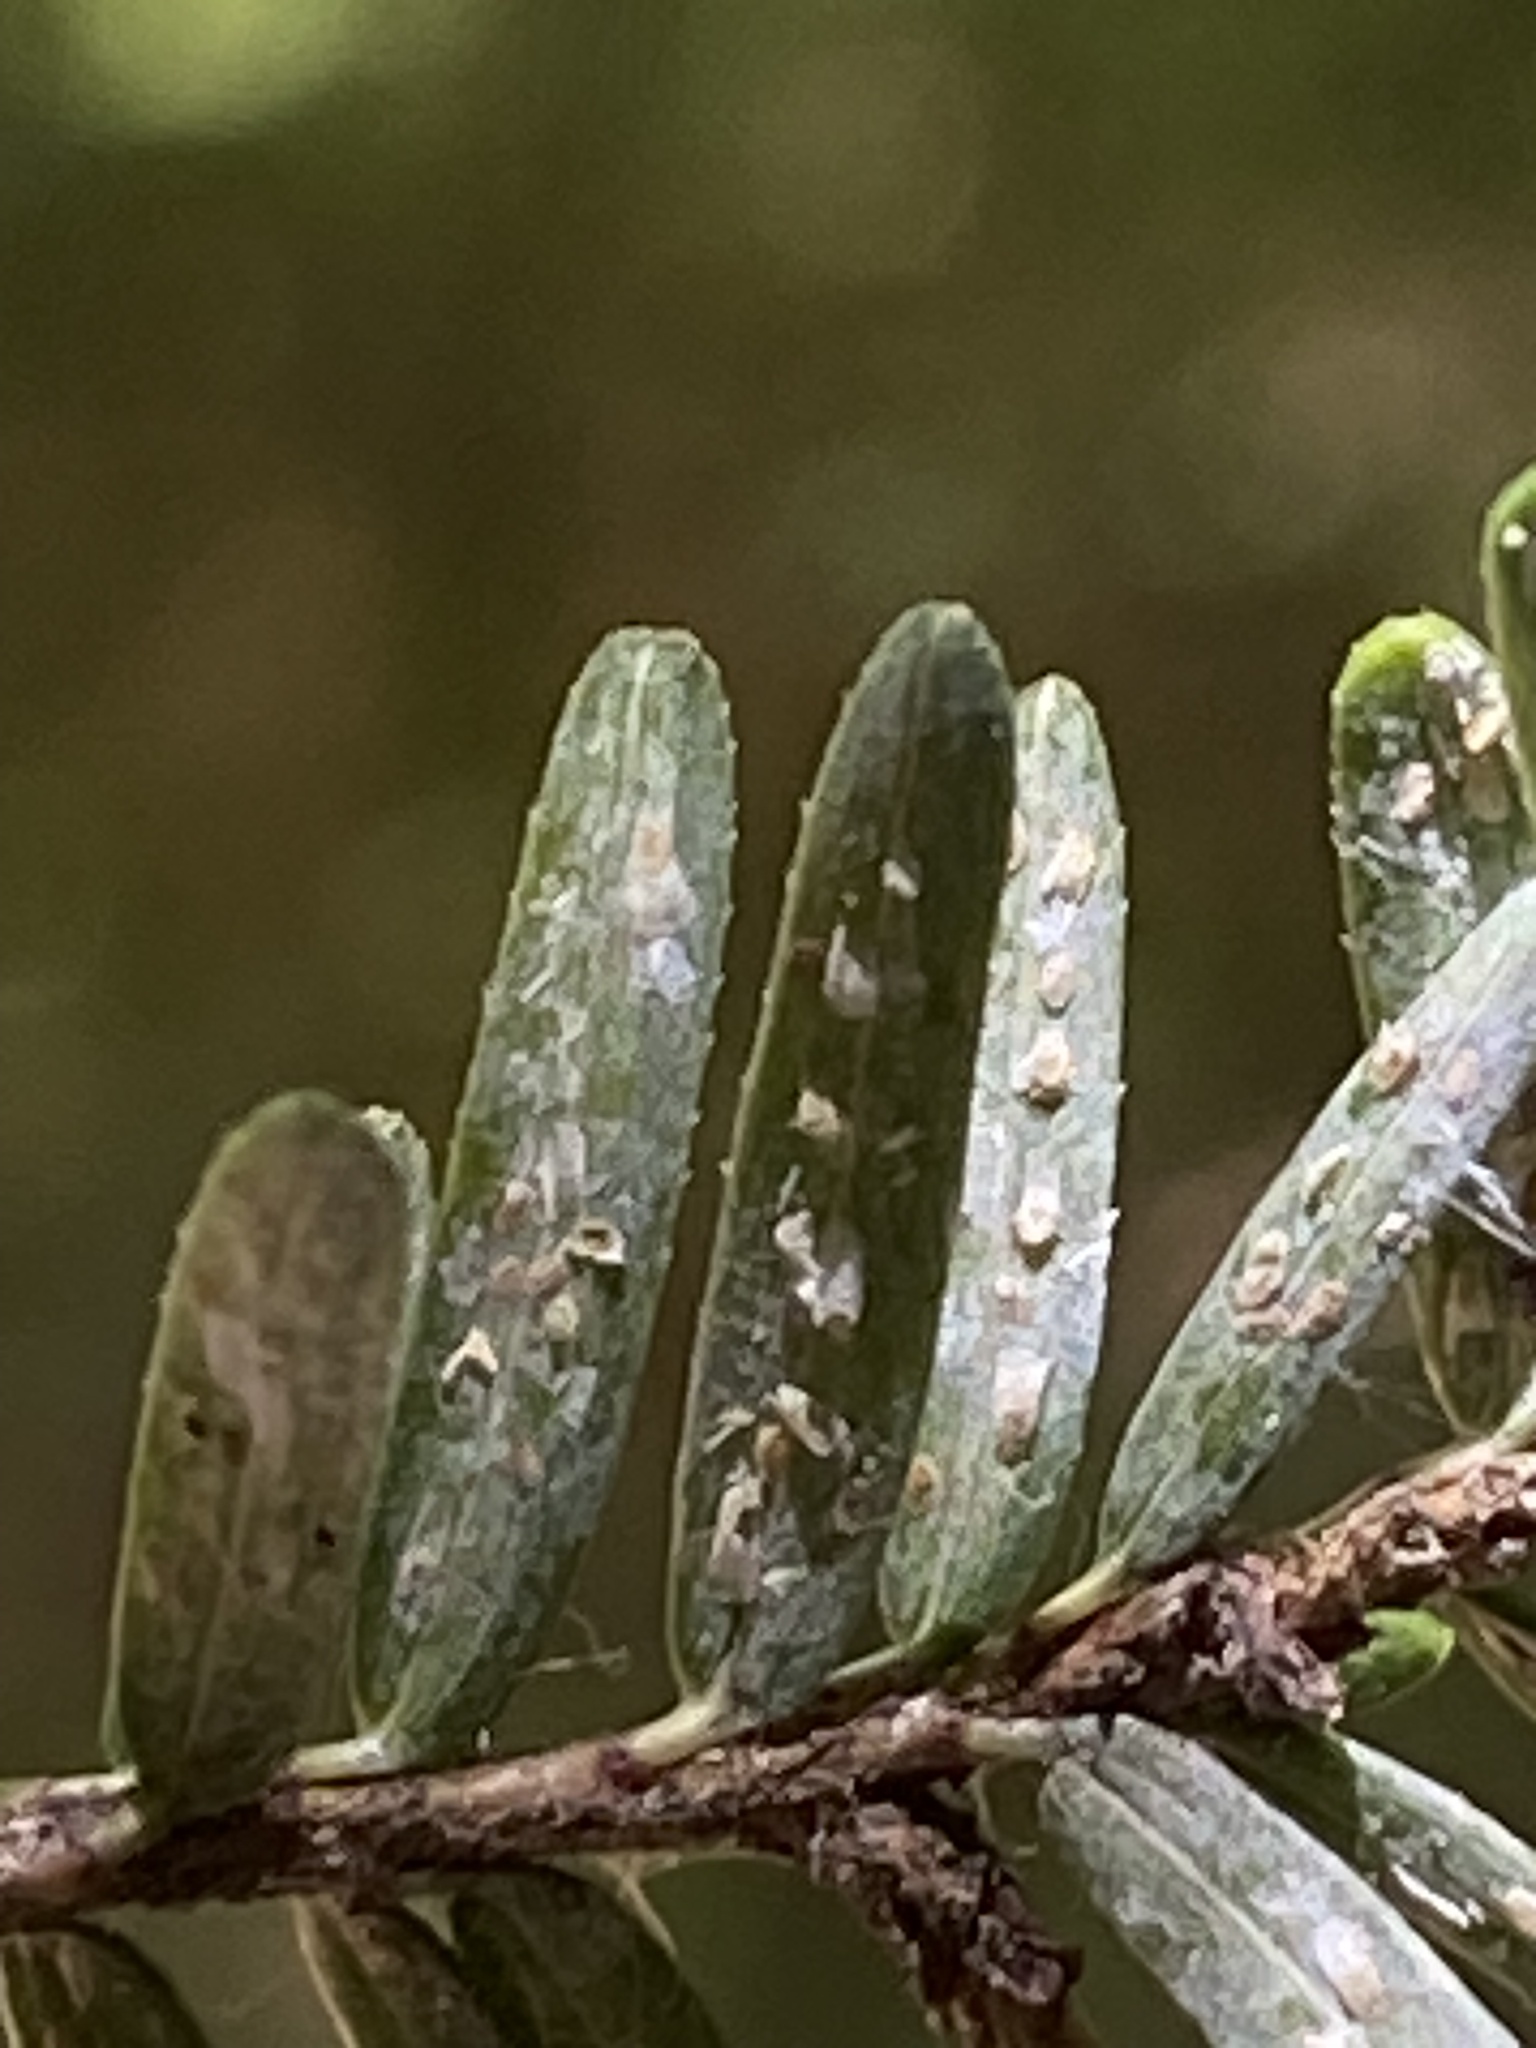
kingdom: Animalia
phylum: Arthropoda
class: Insecta
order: Hemiptera
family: Diaspididae
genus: Fiorinia
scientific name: Fiorinia externa
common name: Elongate hemlock scale
